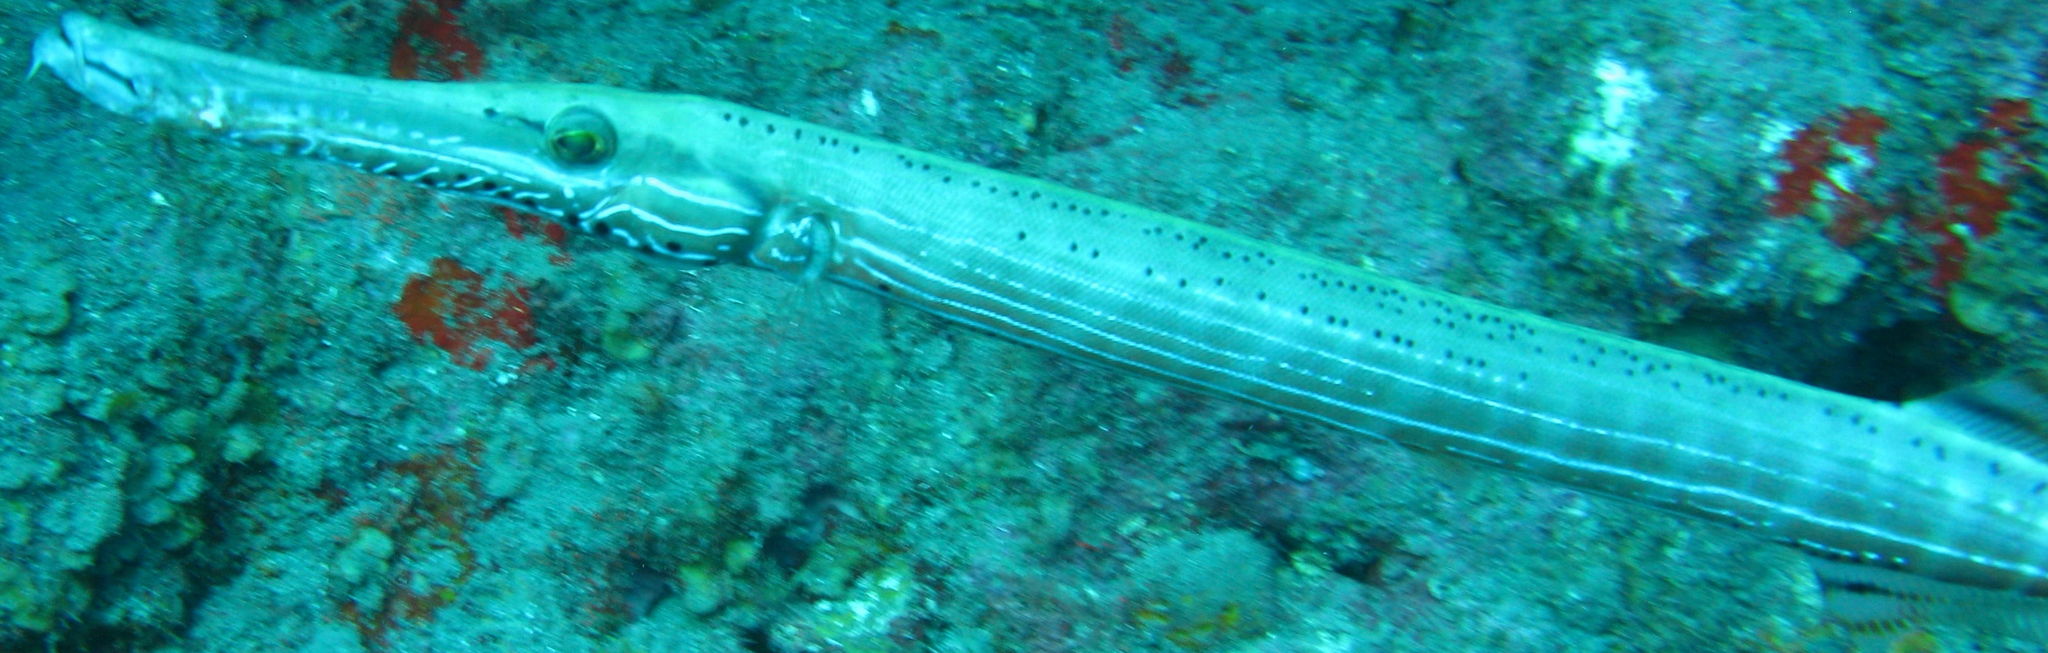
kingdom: Animalia
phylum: Chordata
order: Syngnathiformes
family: Aulostomidae
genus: Aulostomus
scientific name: Aulostomus maculatus
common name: West atlantic trumpetfish
